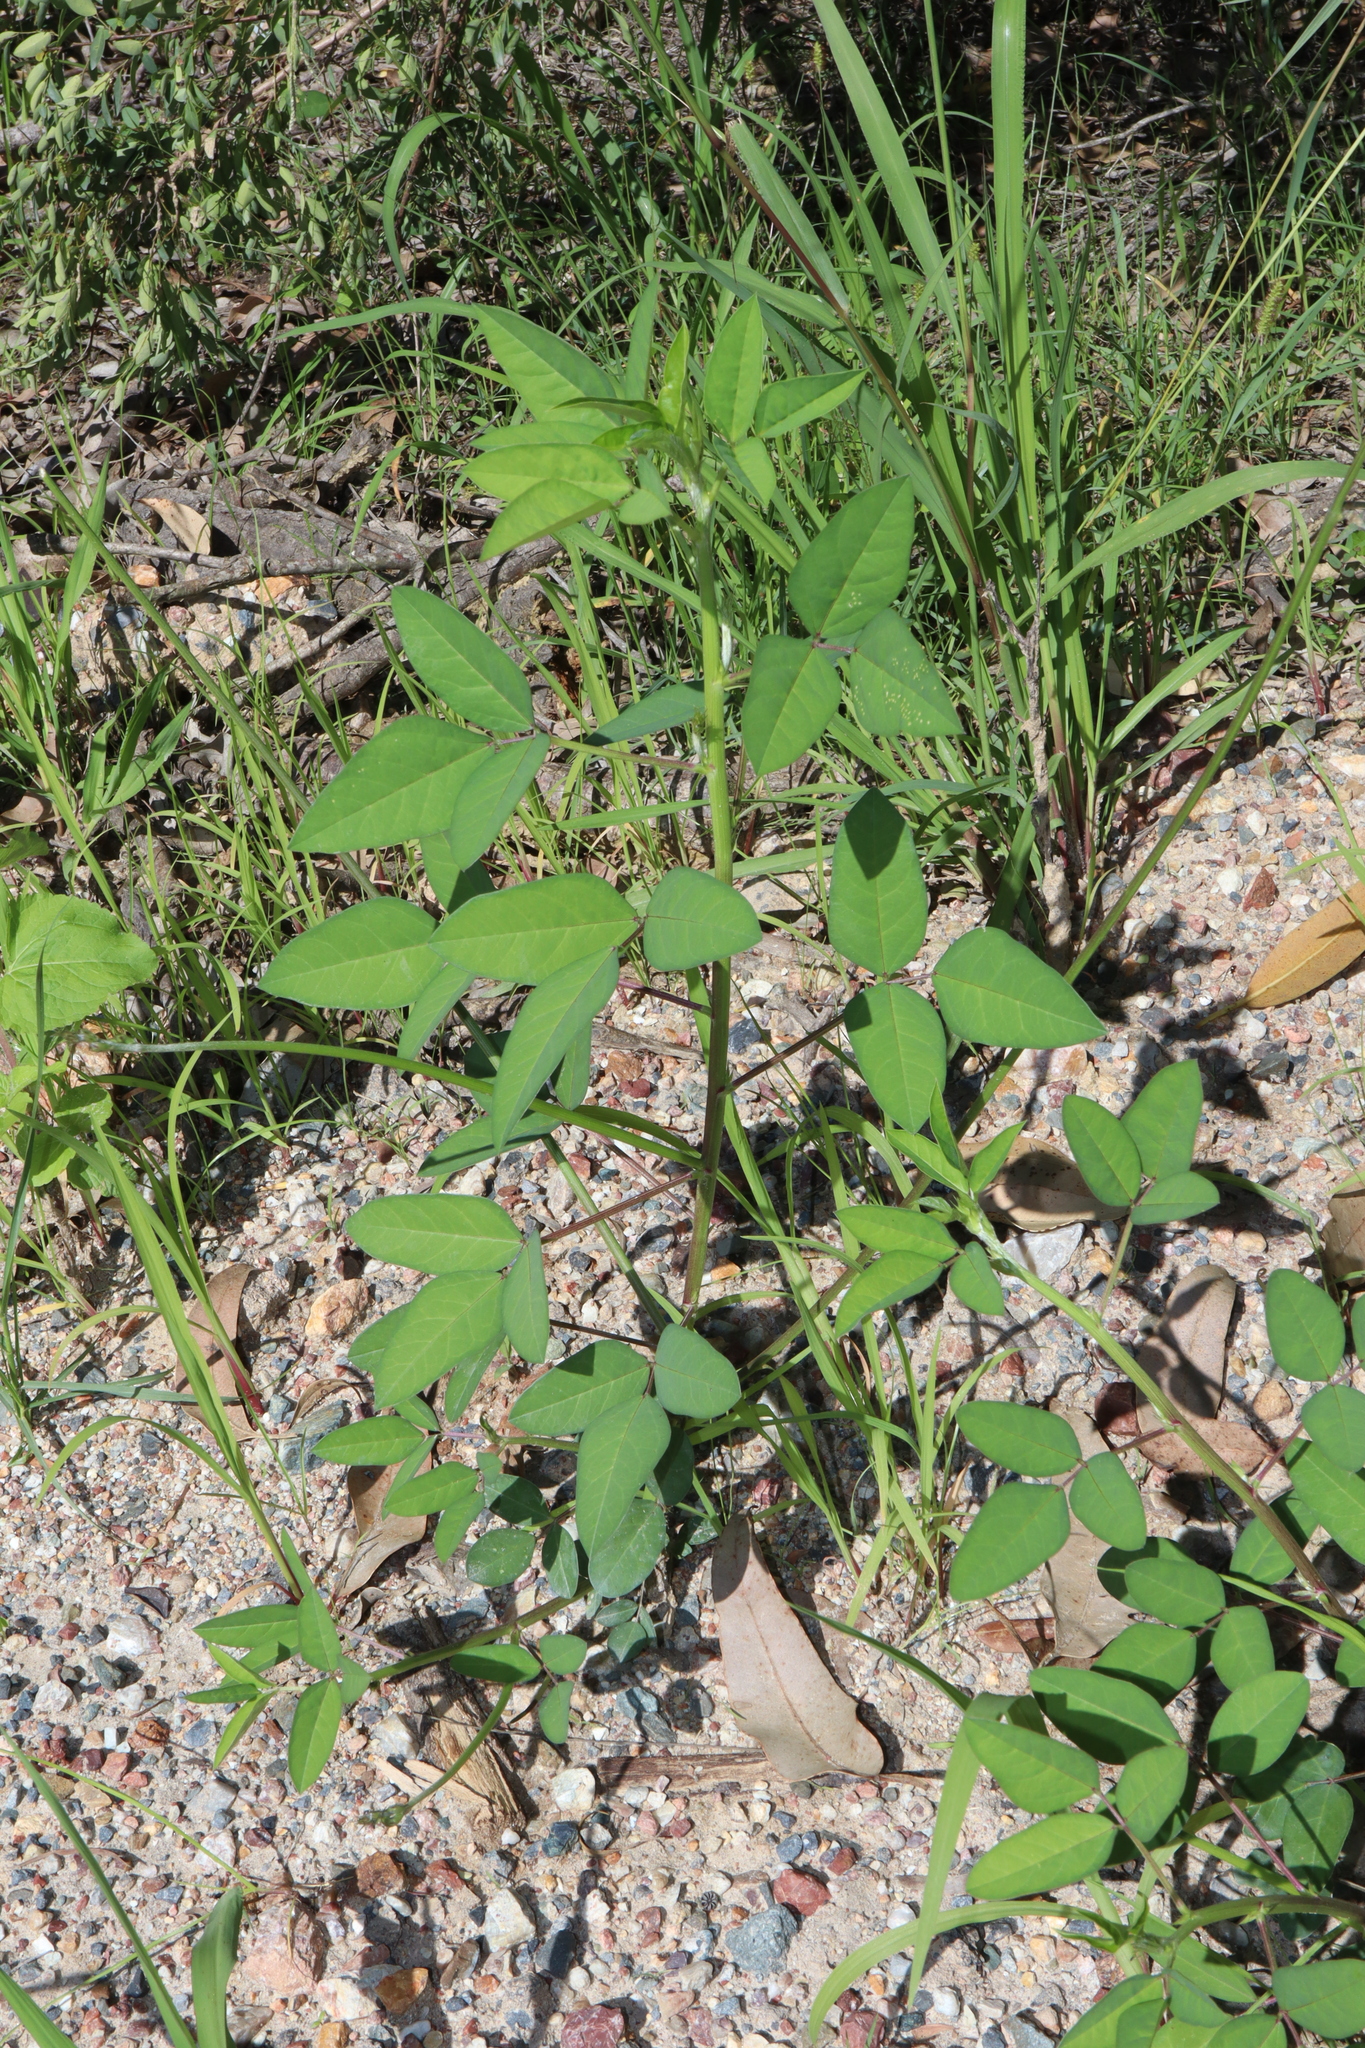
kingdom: Plantae
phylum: Tracheophyta
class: Magnoliopsida
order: Fabales
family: Fabaceae
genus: Macroptilium
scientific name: Macroptilium lathyroides
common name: Wild bushbean
